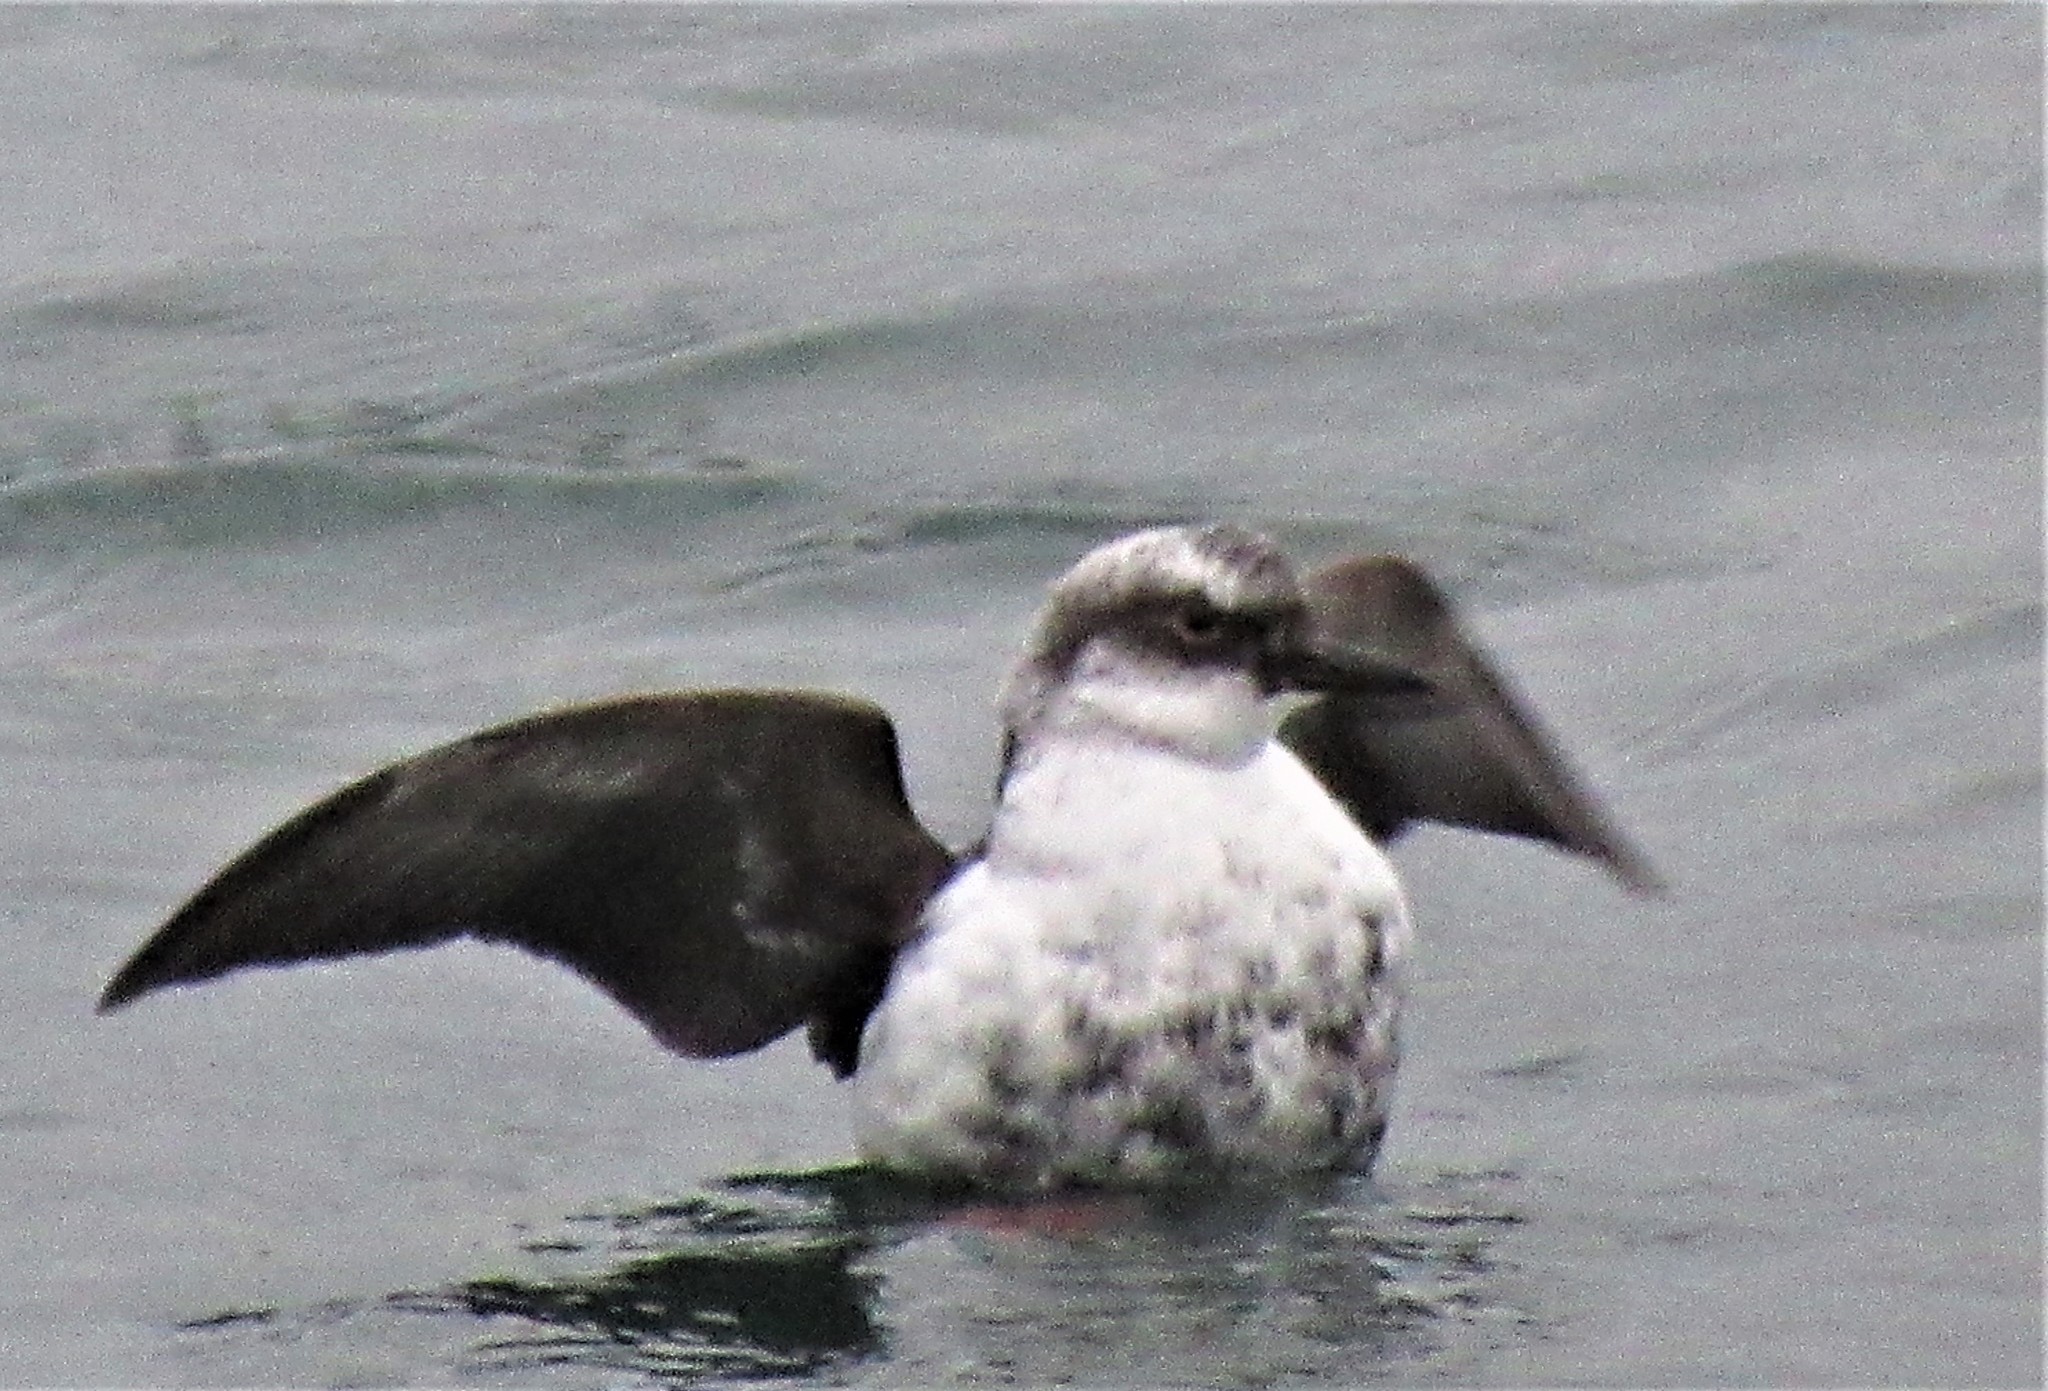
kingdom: Animalia
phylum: Chordata
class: Aves
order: Charadriiformes
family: Alcidae
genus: Cepphus
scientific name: Cepphus columba
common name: Pigeon guillemot
